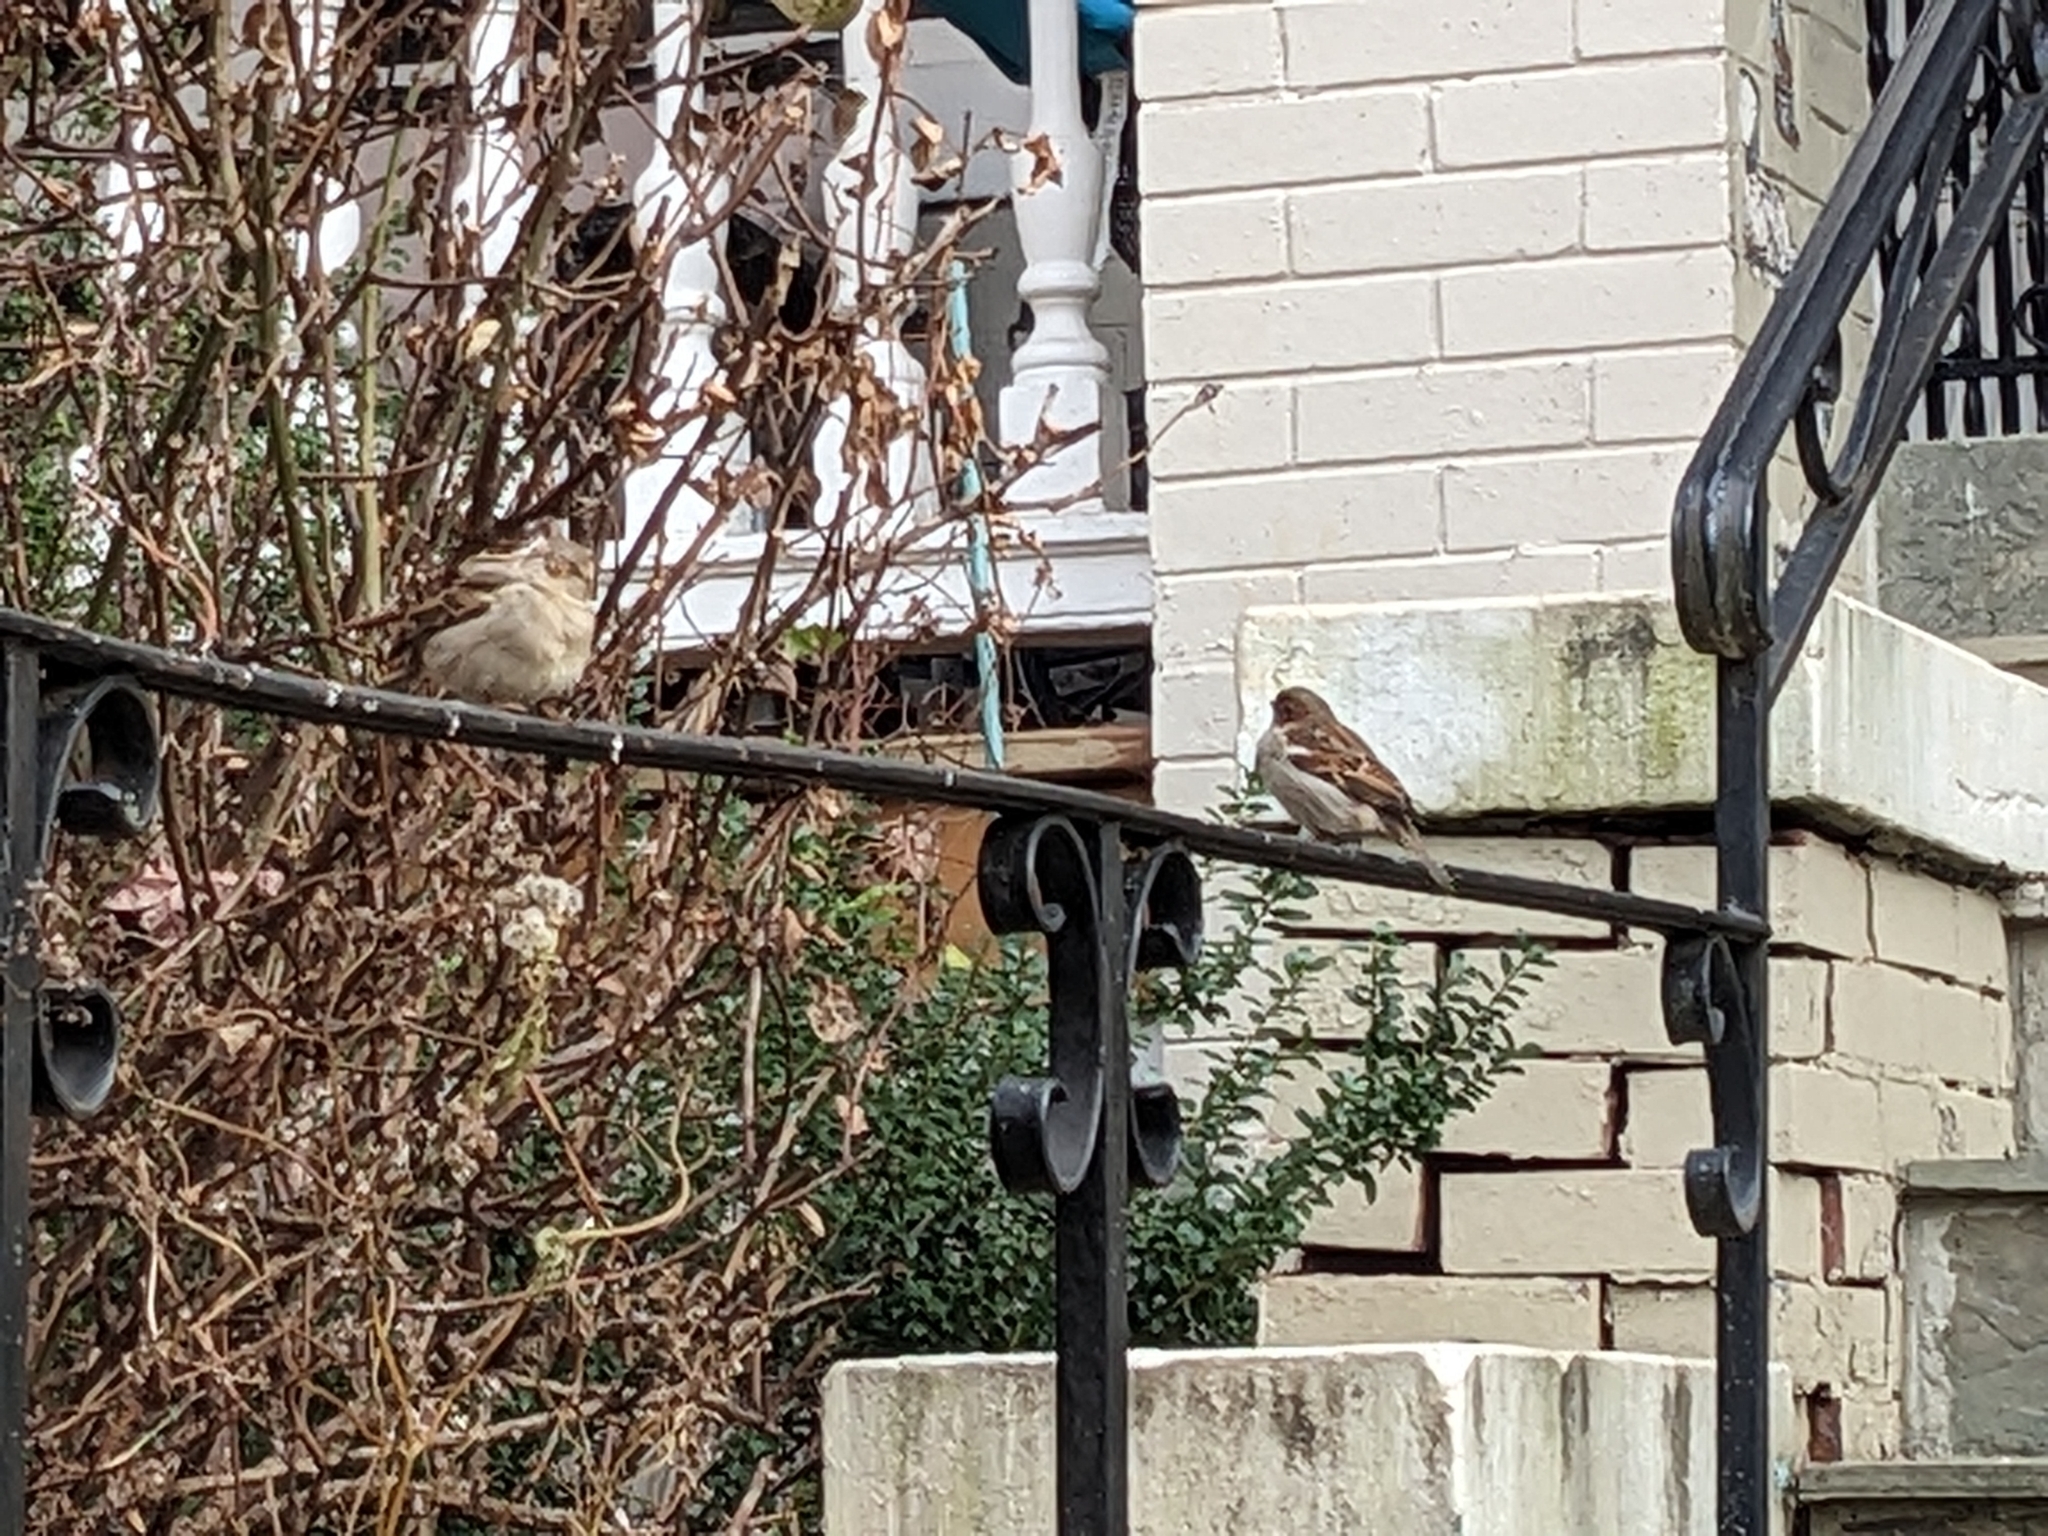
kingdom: Animalia
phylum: Chordata
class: Aves
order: Passeriformes
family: Passeridae
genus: Passer
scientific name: Passer domesticus
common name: House sparrow
